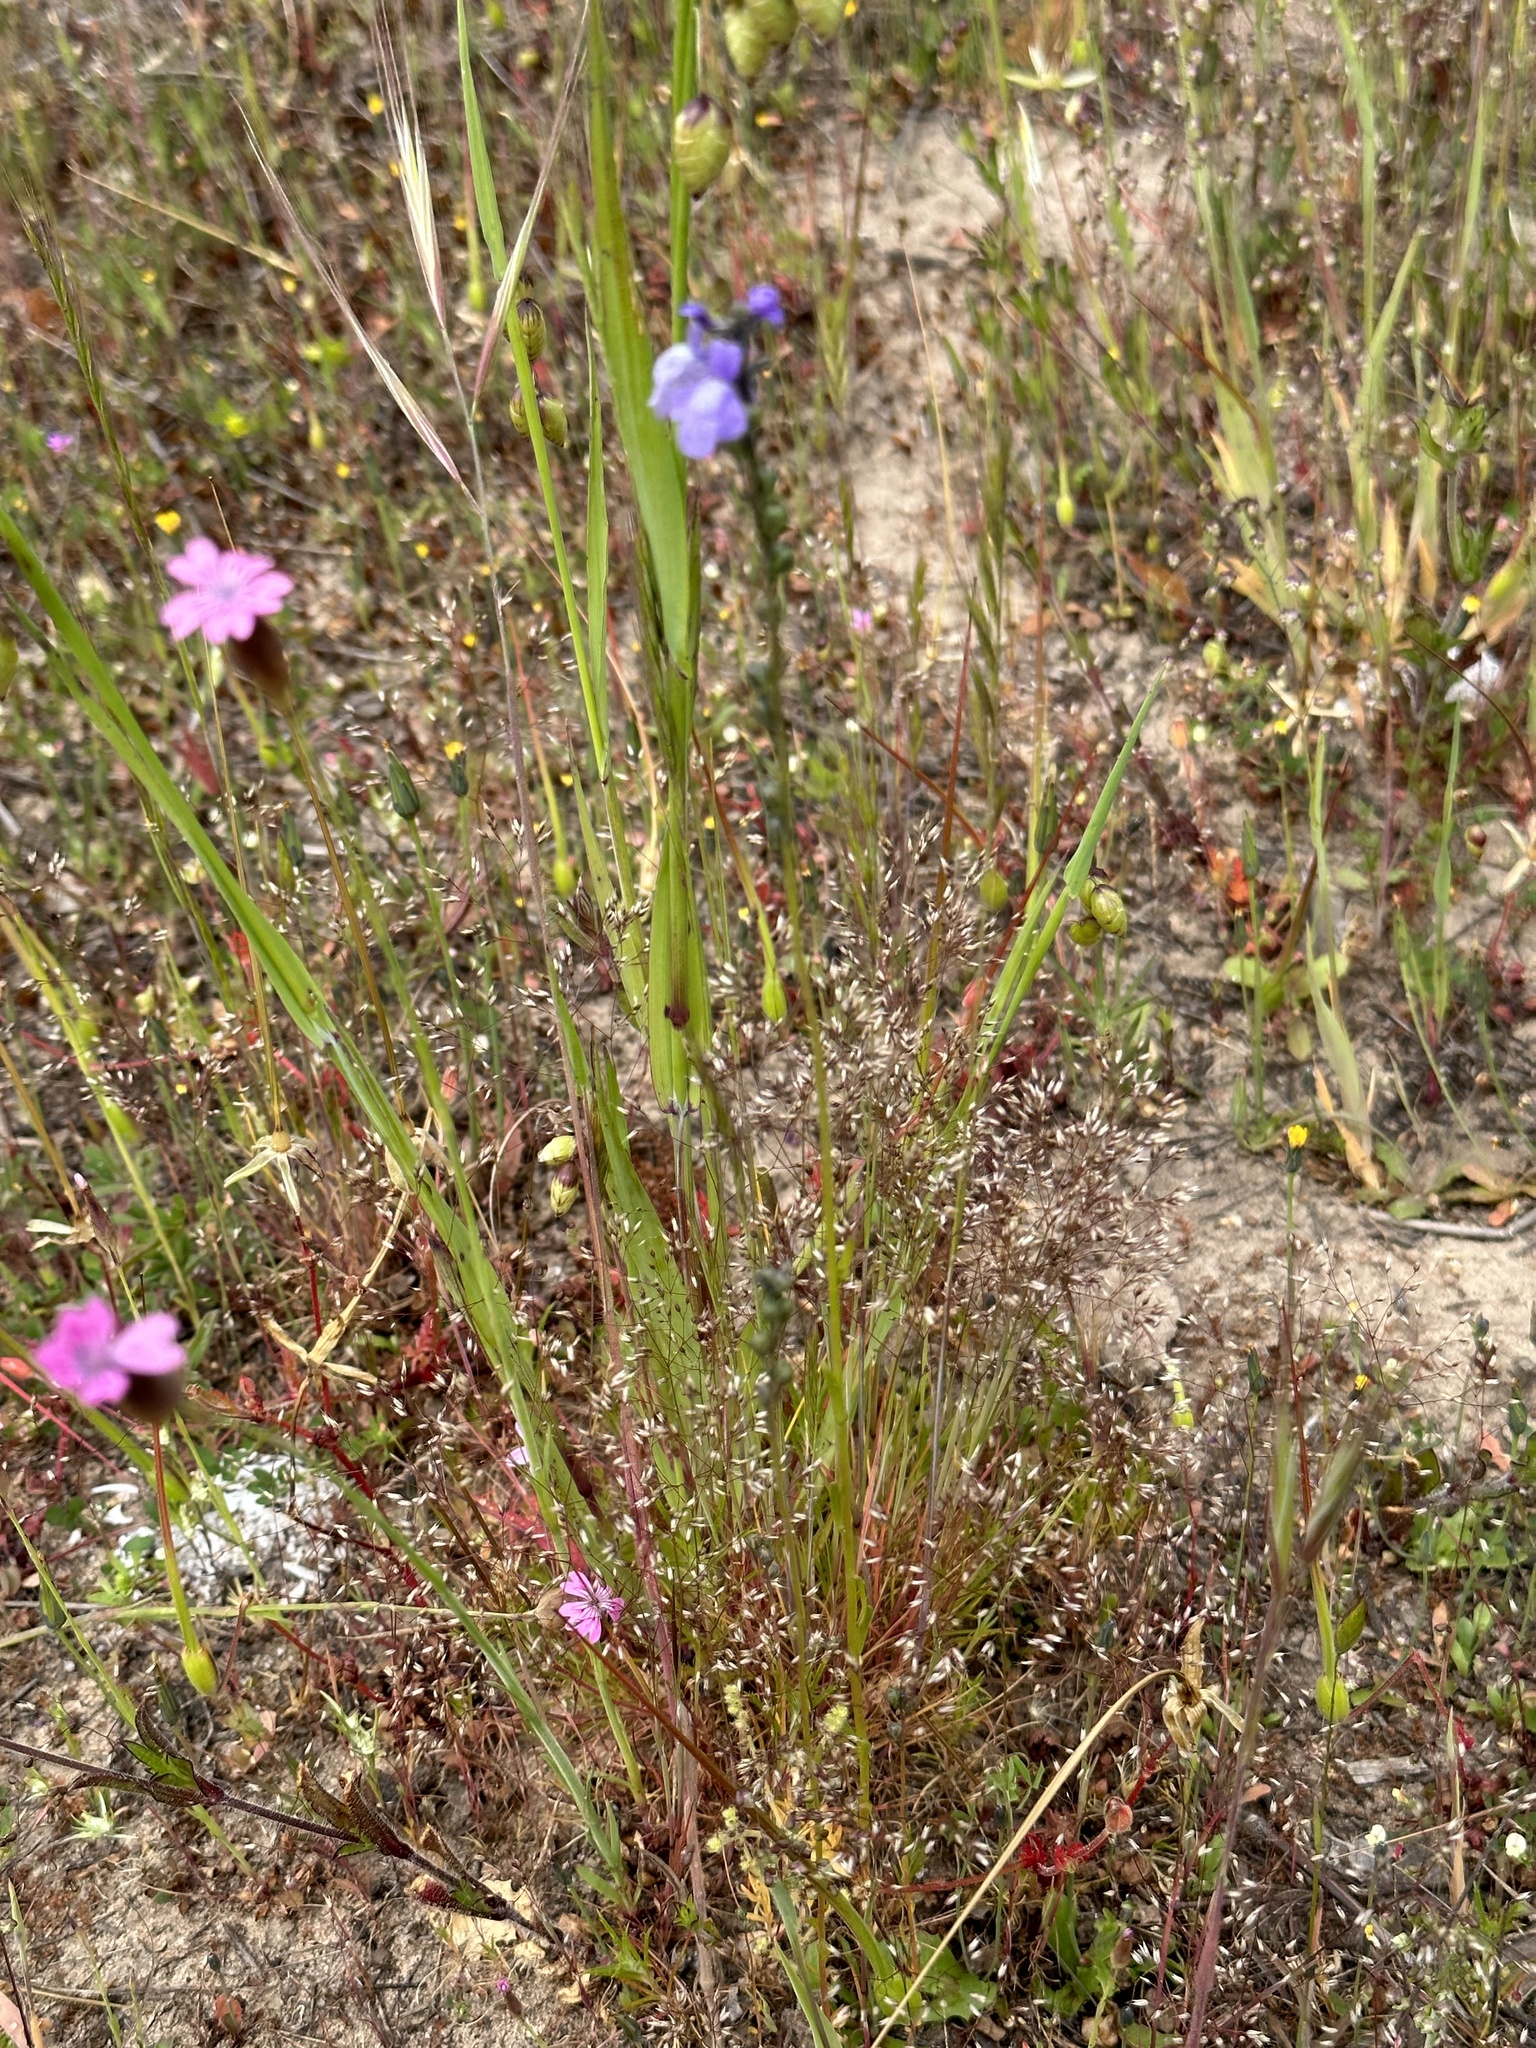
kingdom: Plantae
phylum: Tracheophyta
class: Magnoliopsida
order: Lamiales
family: Plantaginaceae
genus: Nuttallanthus
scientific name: Nuttallanthus texanus
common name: Texas toadflax
